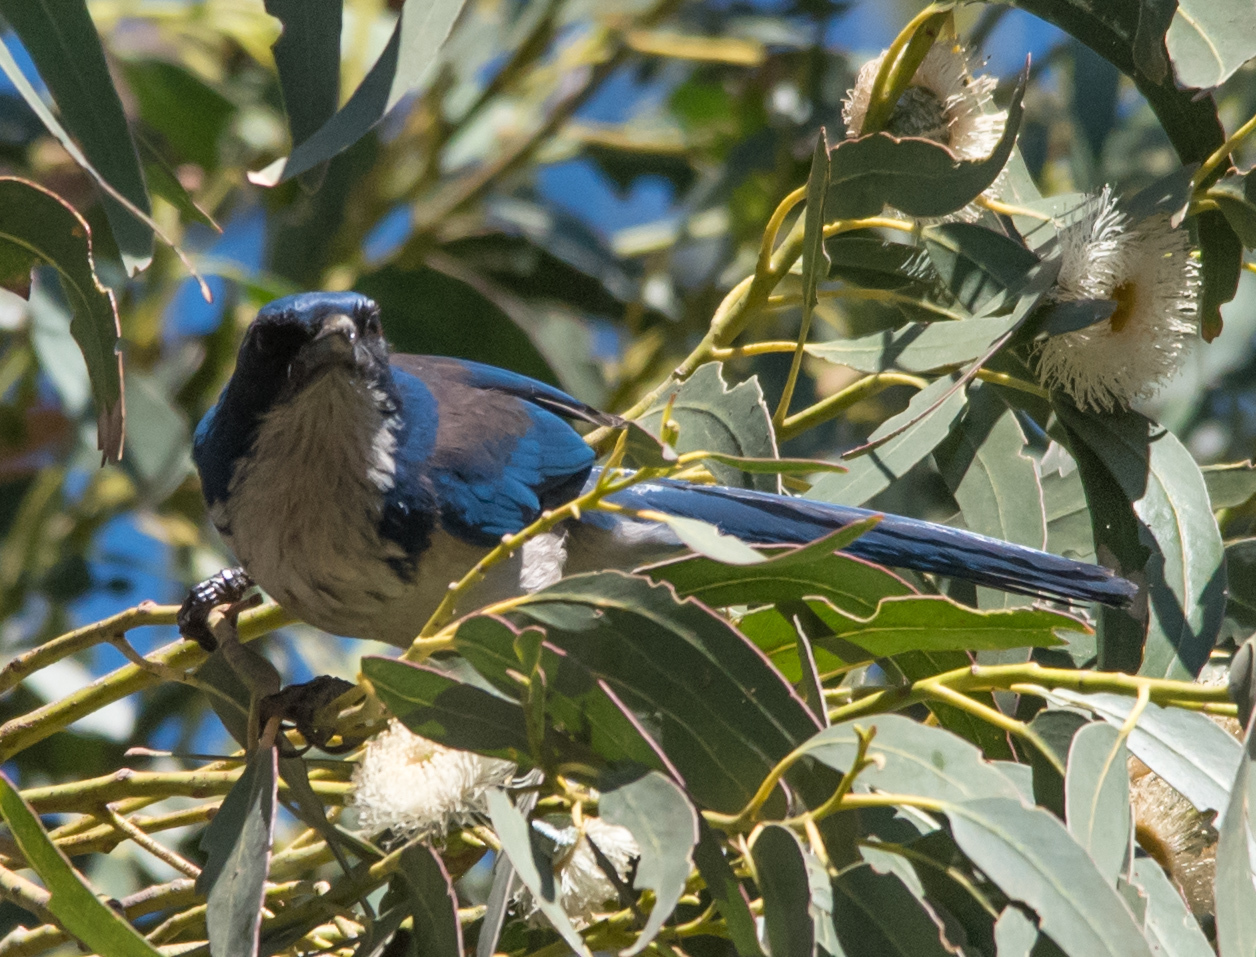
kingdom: Animalia
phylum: Chordata
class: Aves
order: Passeriformes
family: Corvidae
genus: Aphelocoma
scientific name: Aphelocoma insularis
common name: Island scrub-jay
